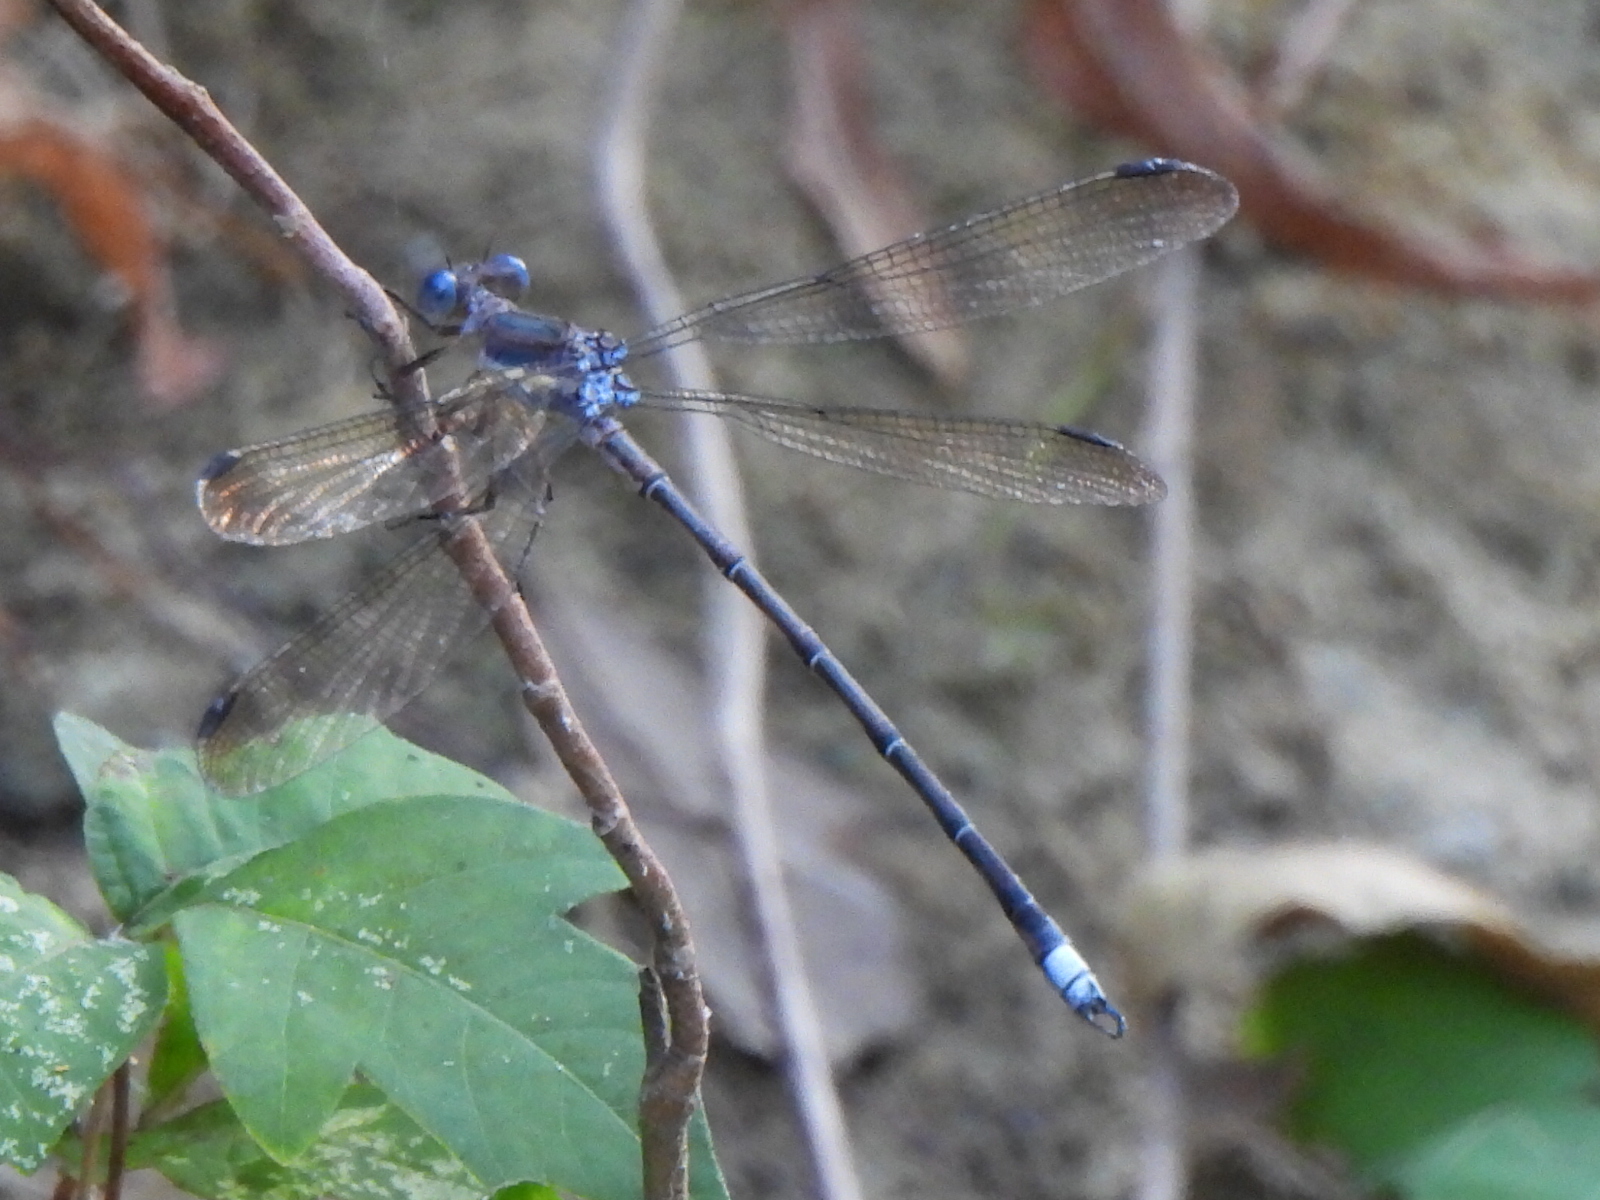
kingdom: Animalia
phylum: Arthropoda
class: Insecta
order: Odonata
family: Lestidae
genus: Archilestes
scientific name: Archilestes grandis
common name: Great spreadwing
